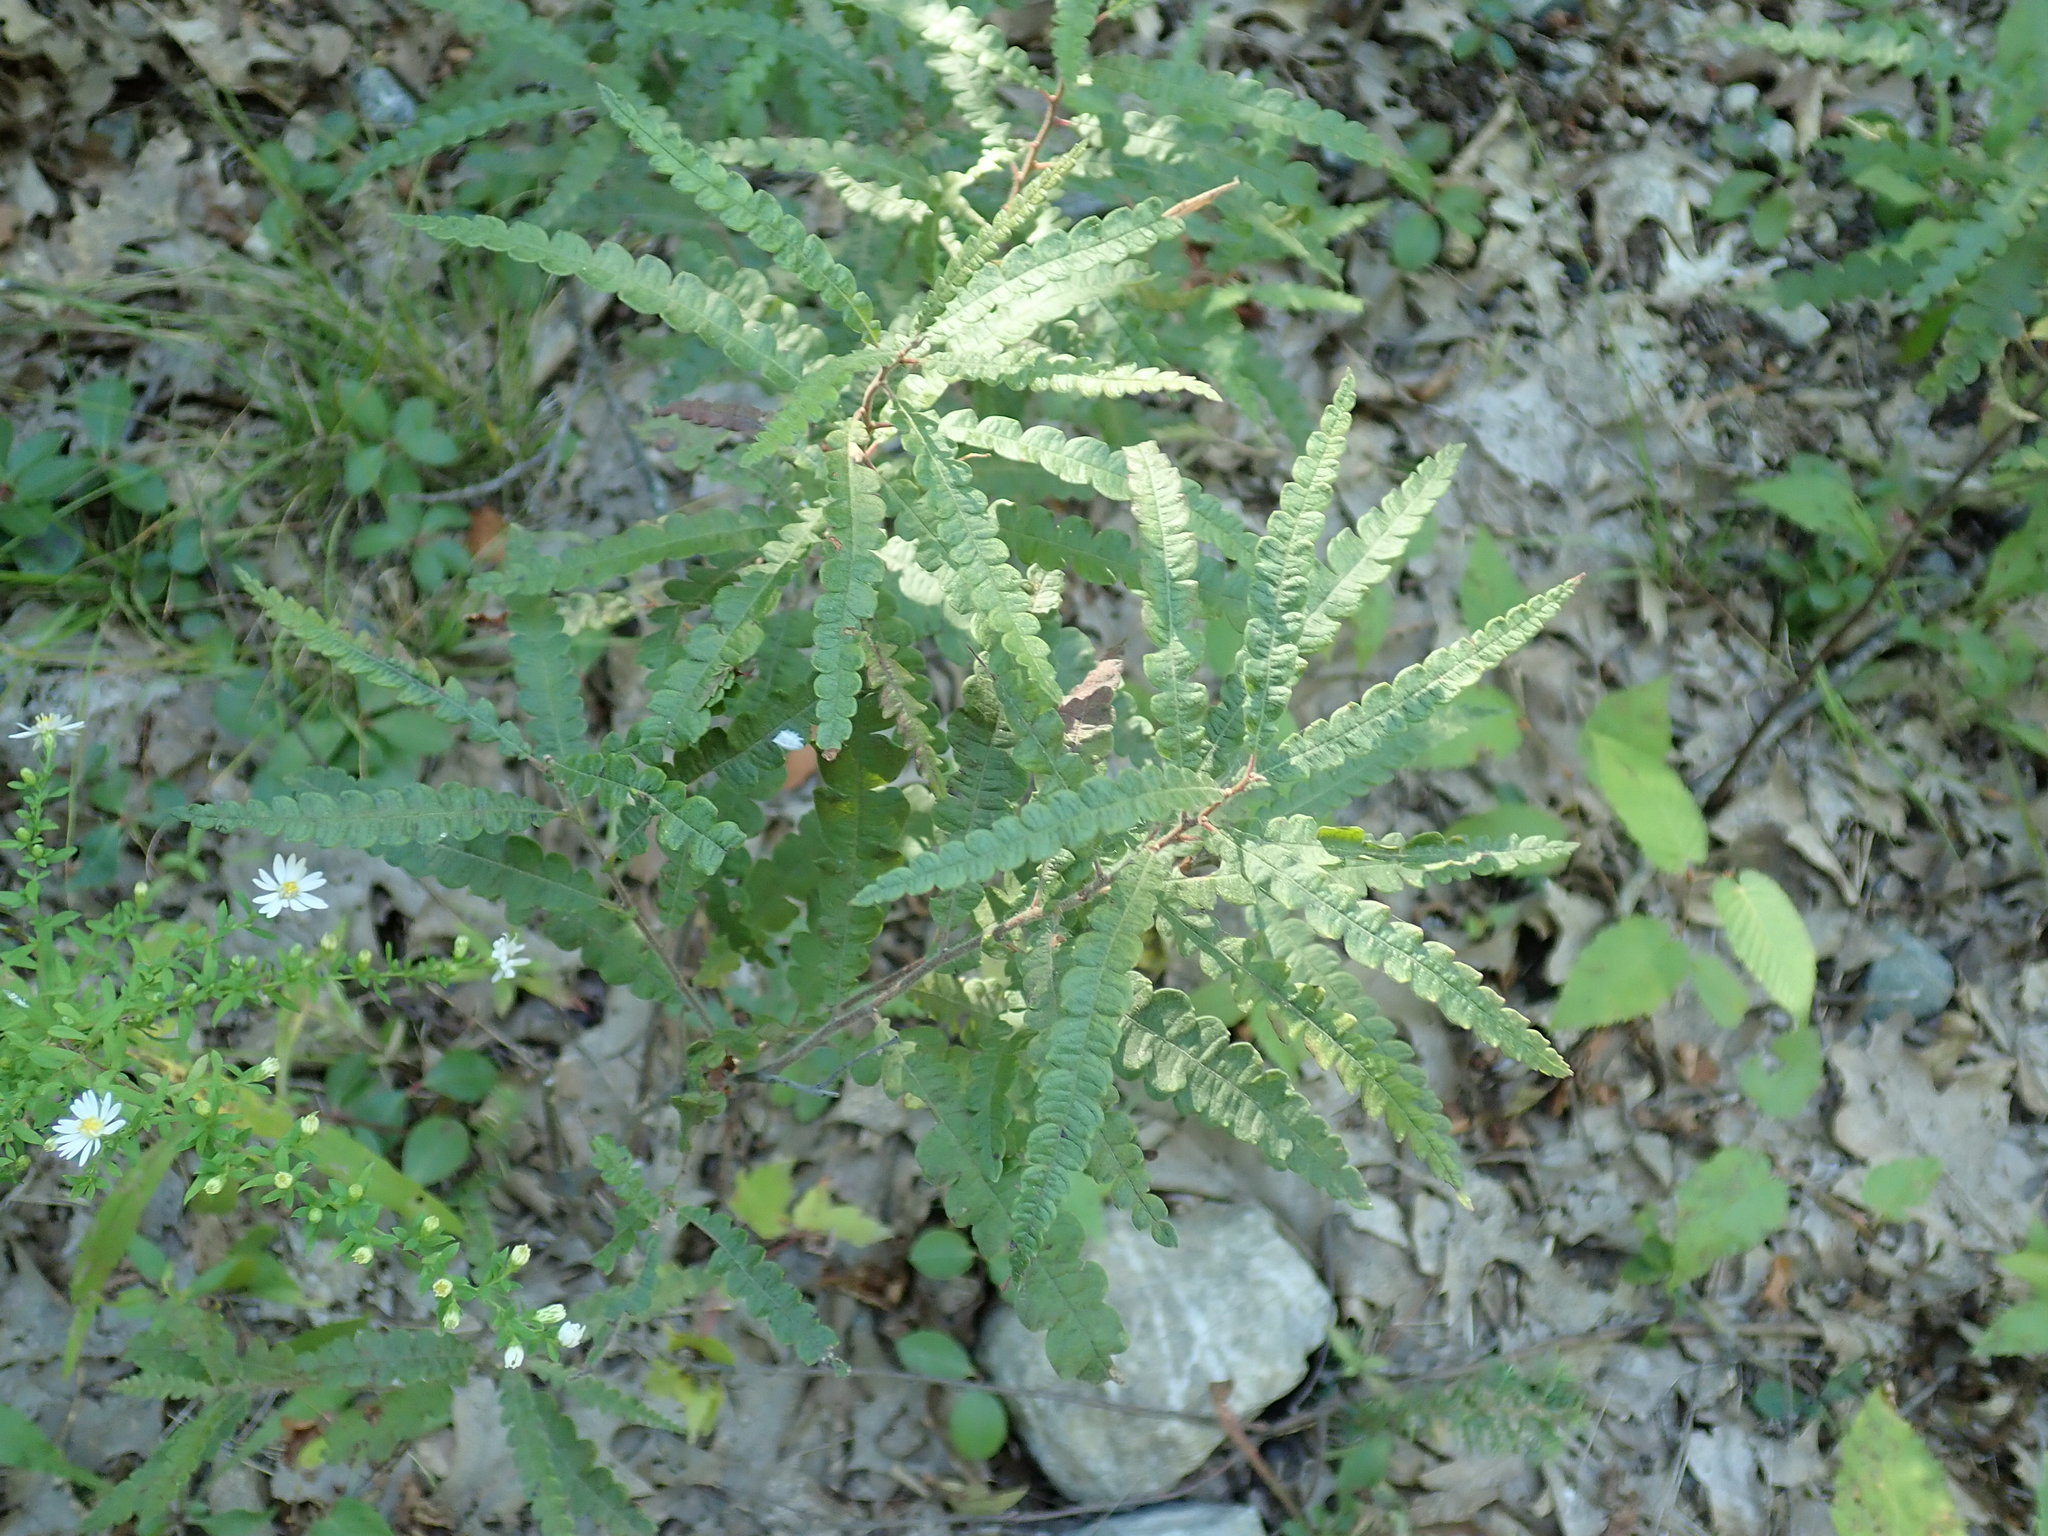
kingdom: Plantae
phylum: Tracheophyta
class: Magnoliopsida
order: Fagales
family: Myricaceae
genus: Comptonia
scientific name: Comptonia peregrina
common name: Sweet-fern
